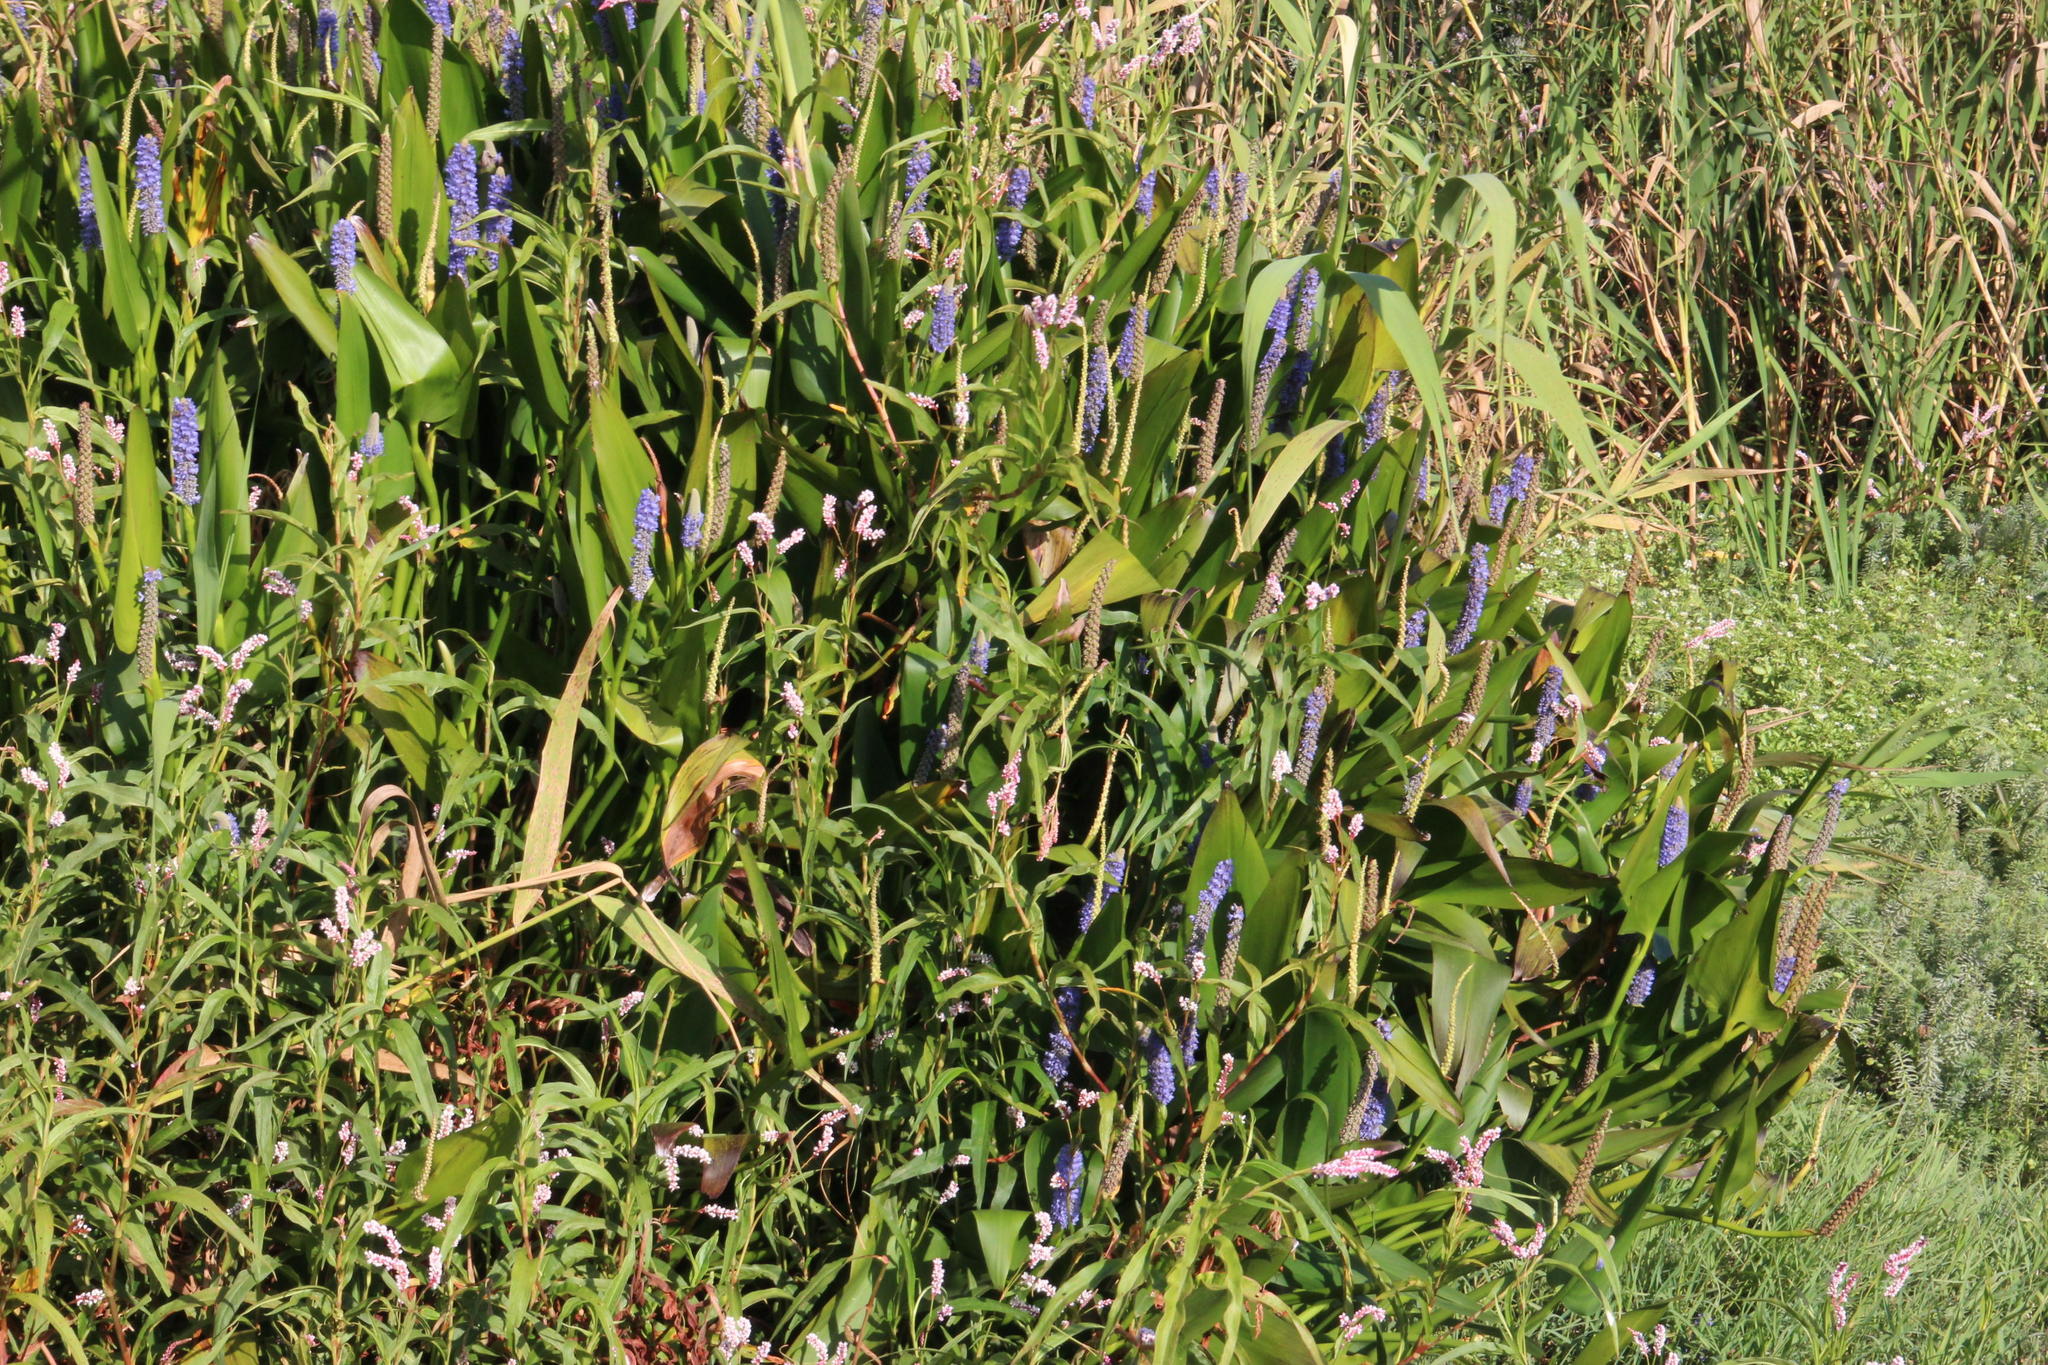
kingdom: Plantae
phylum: Tracheophyta
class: Liliopsida
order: Commelinales
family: Pontederiaceae
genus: Pontederia
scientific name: Pontederia cordata
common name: Pickerelweed
